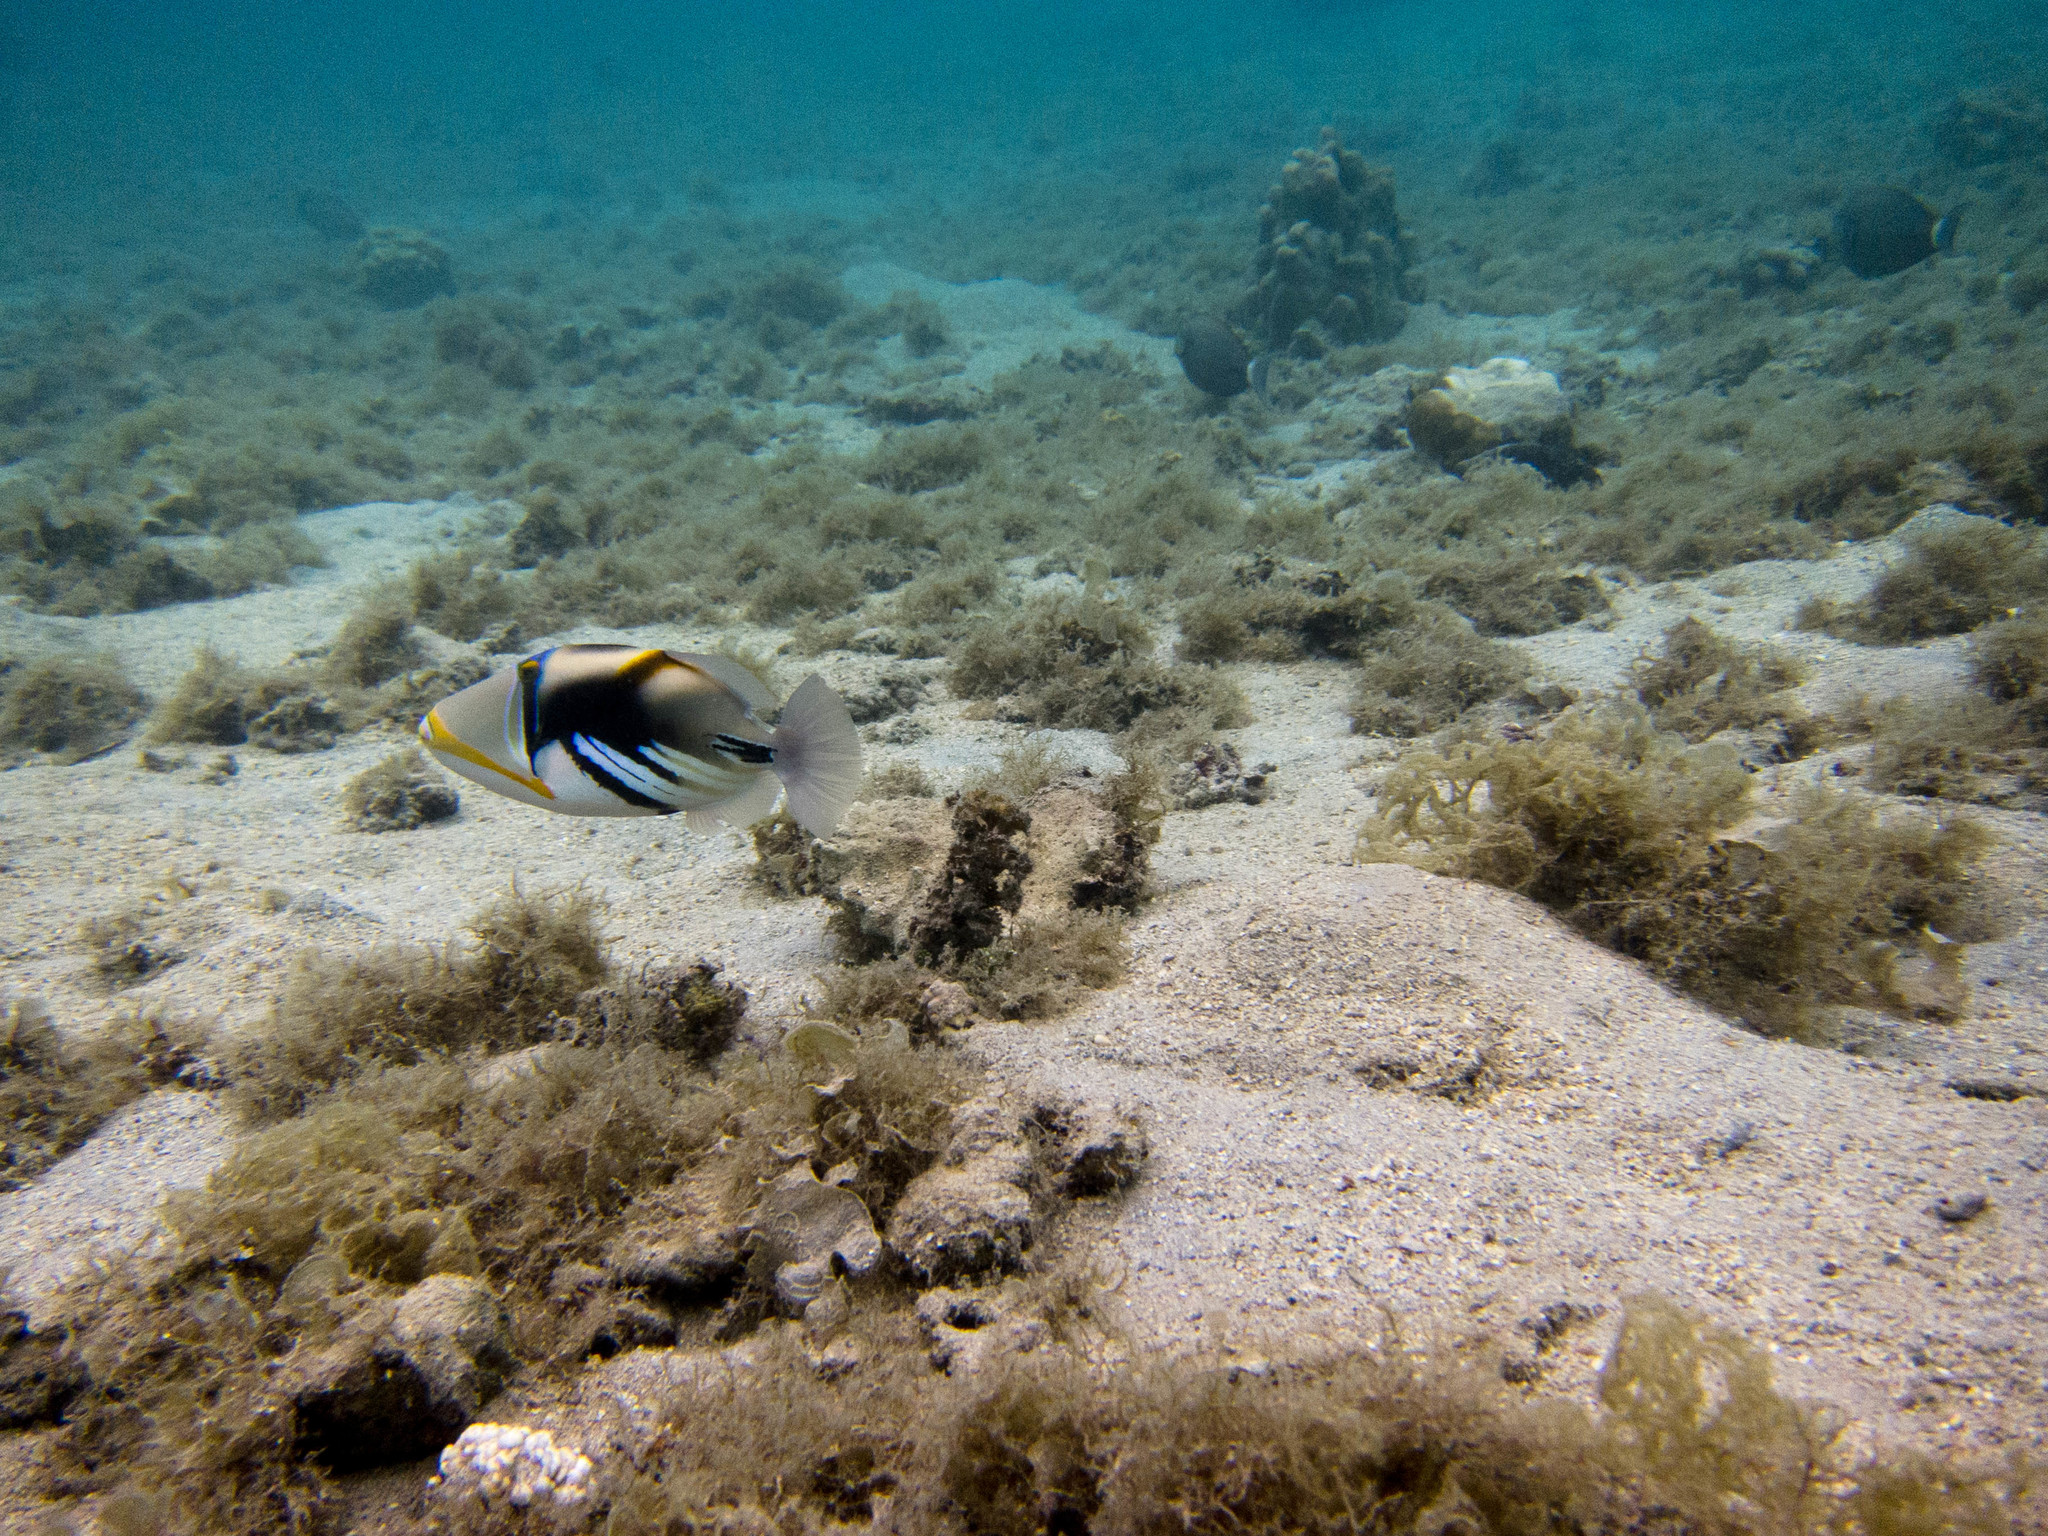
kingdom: Animalia
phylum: Chordata
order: Tetraodontiformes
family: Balistidae
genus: Rhinecanthus
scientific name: Rhinecanthus aculeatus
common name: White-banded triggerfish
